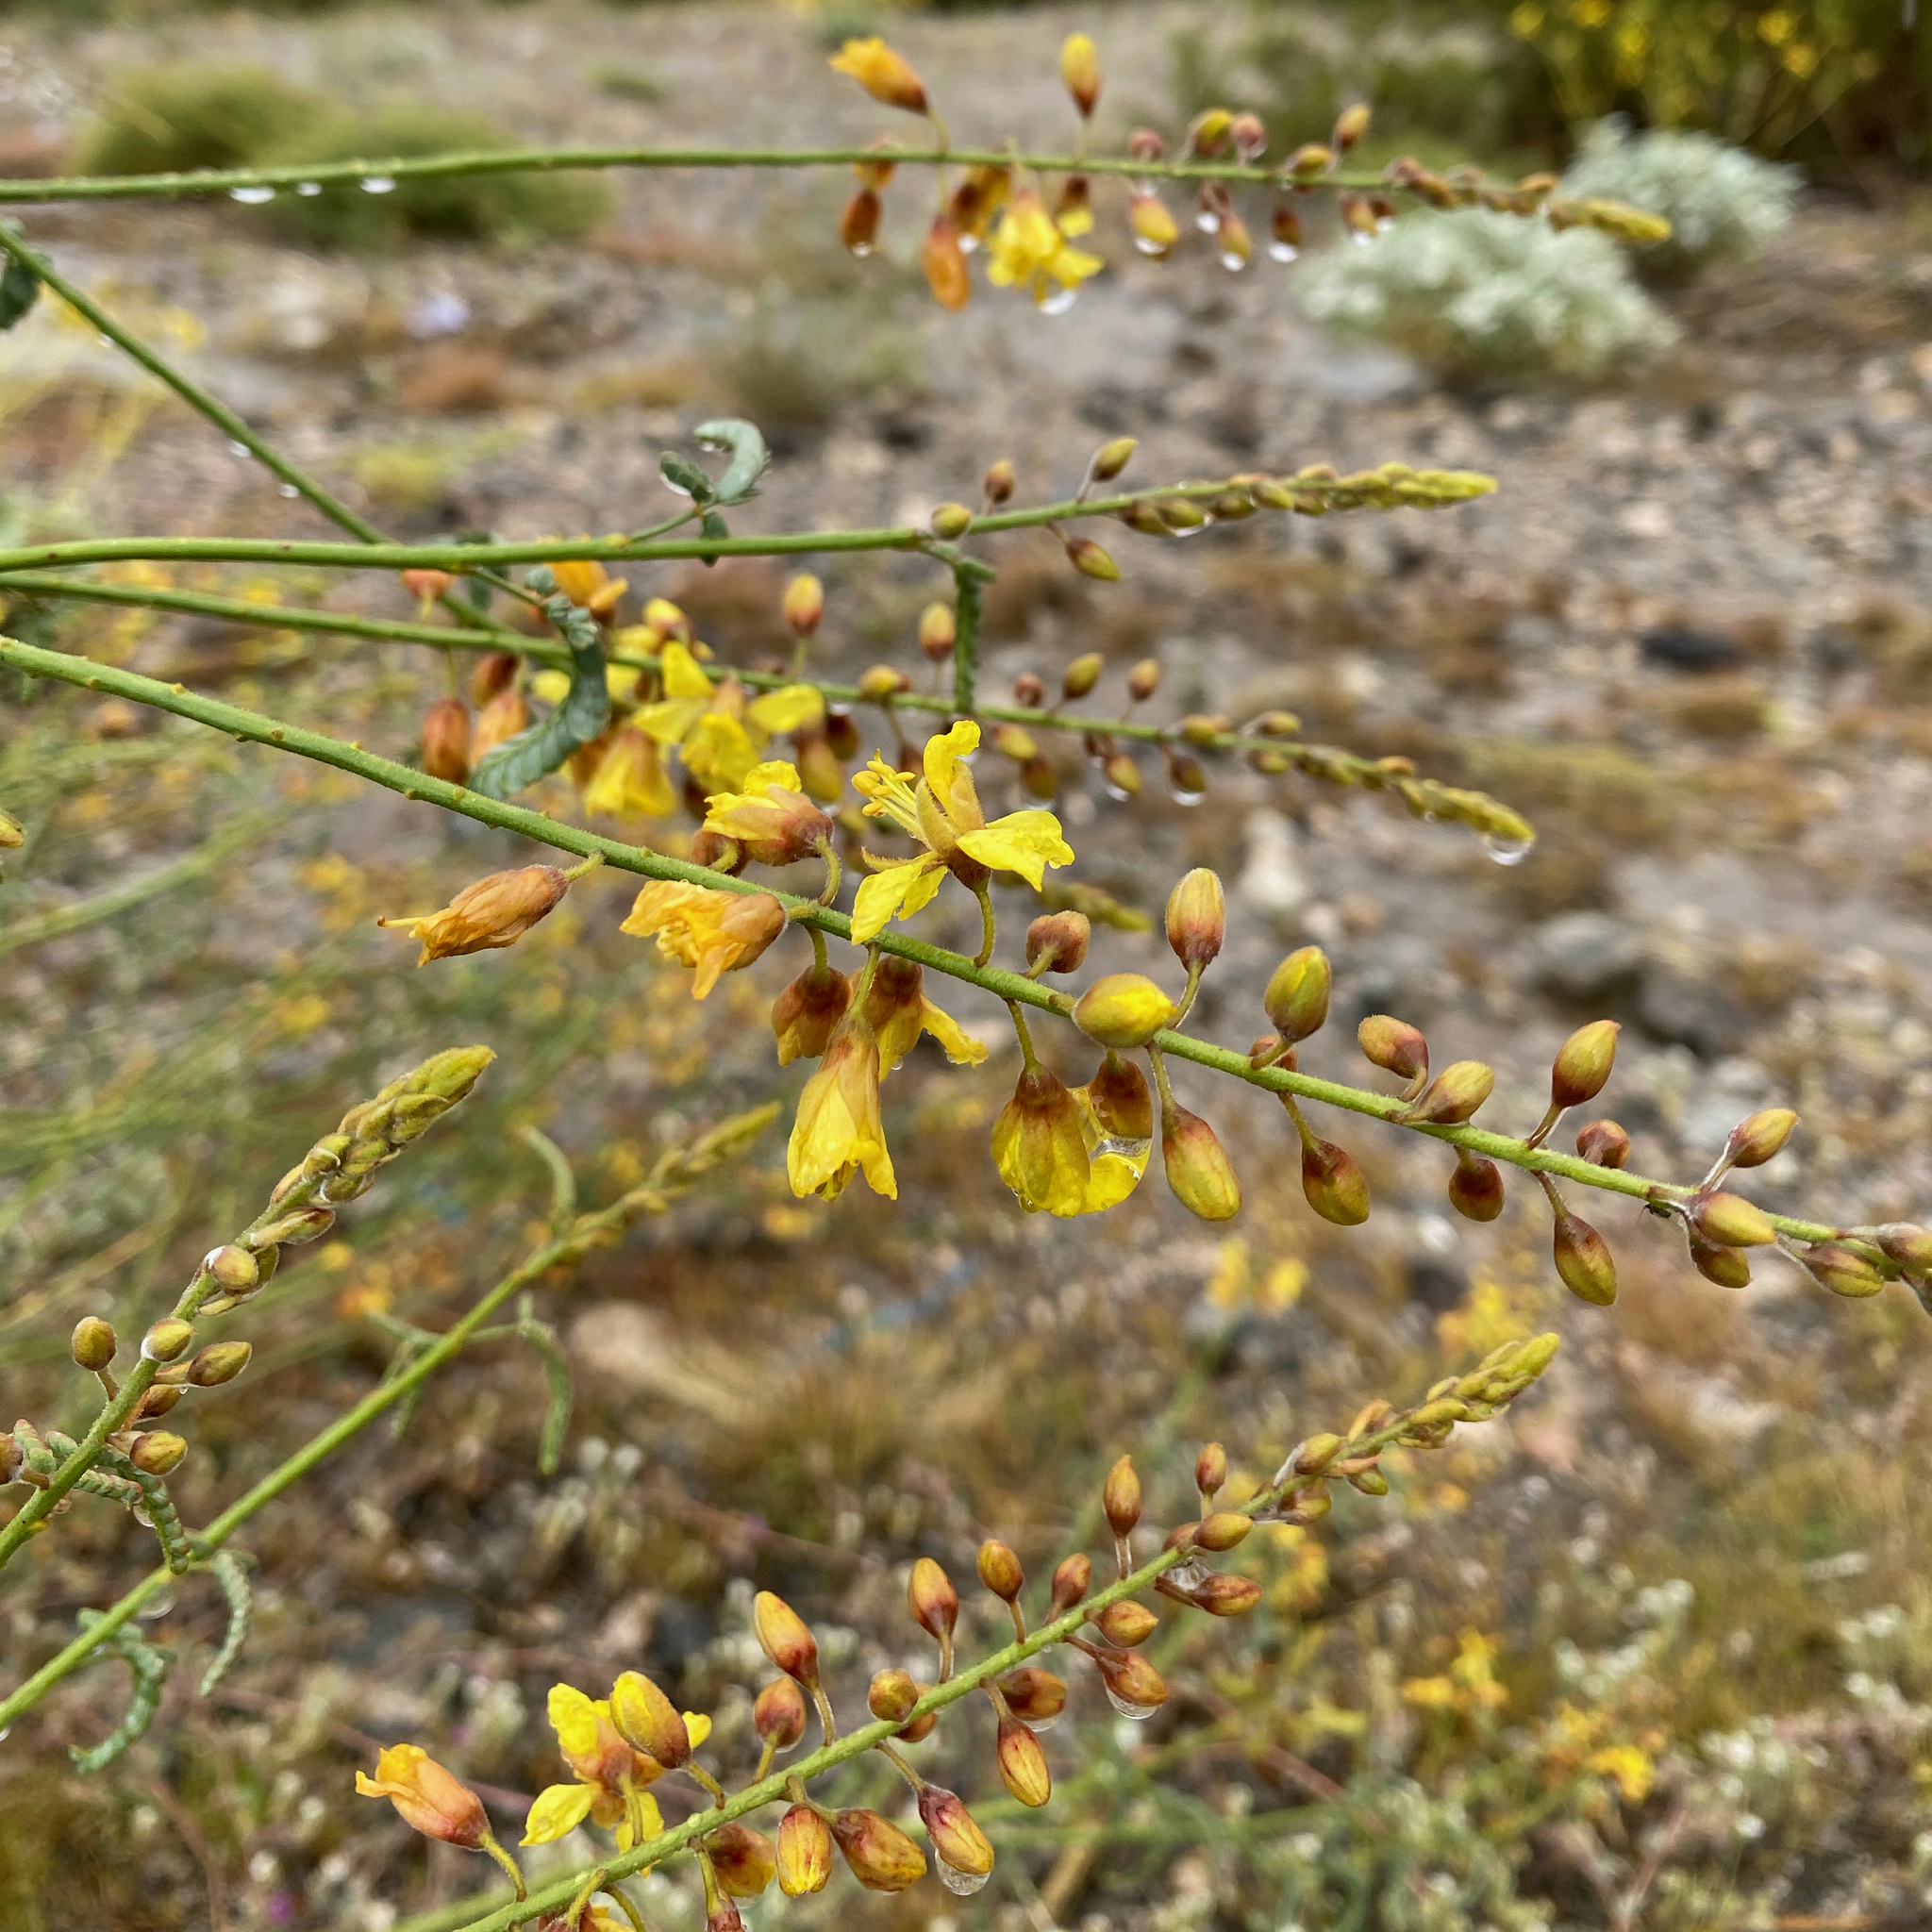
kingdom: Plantae
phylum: Tracheophyta
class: Magnoliopsida
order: Fabales
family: Fabaceae
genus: Hoffmannseggia
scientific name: Hoffmannseggia microphylla
